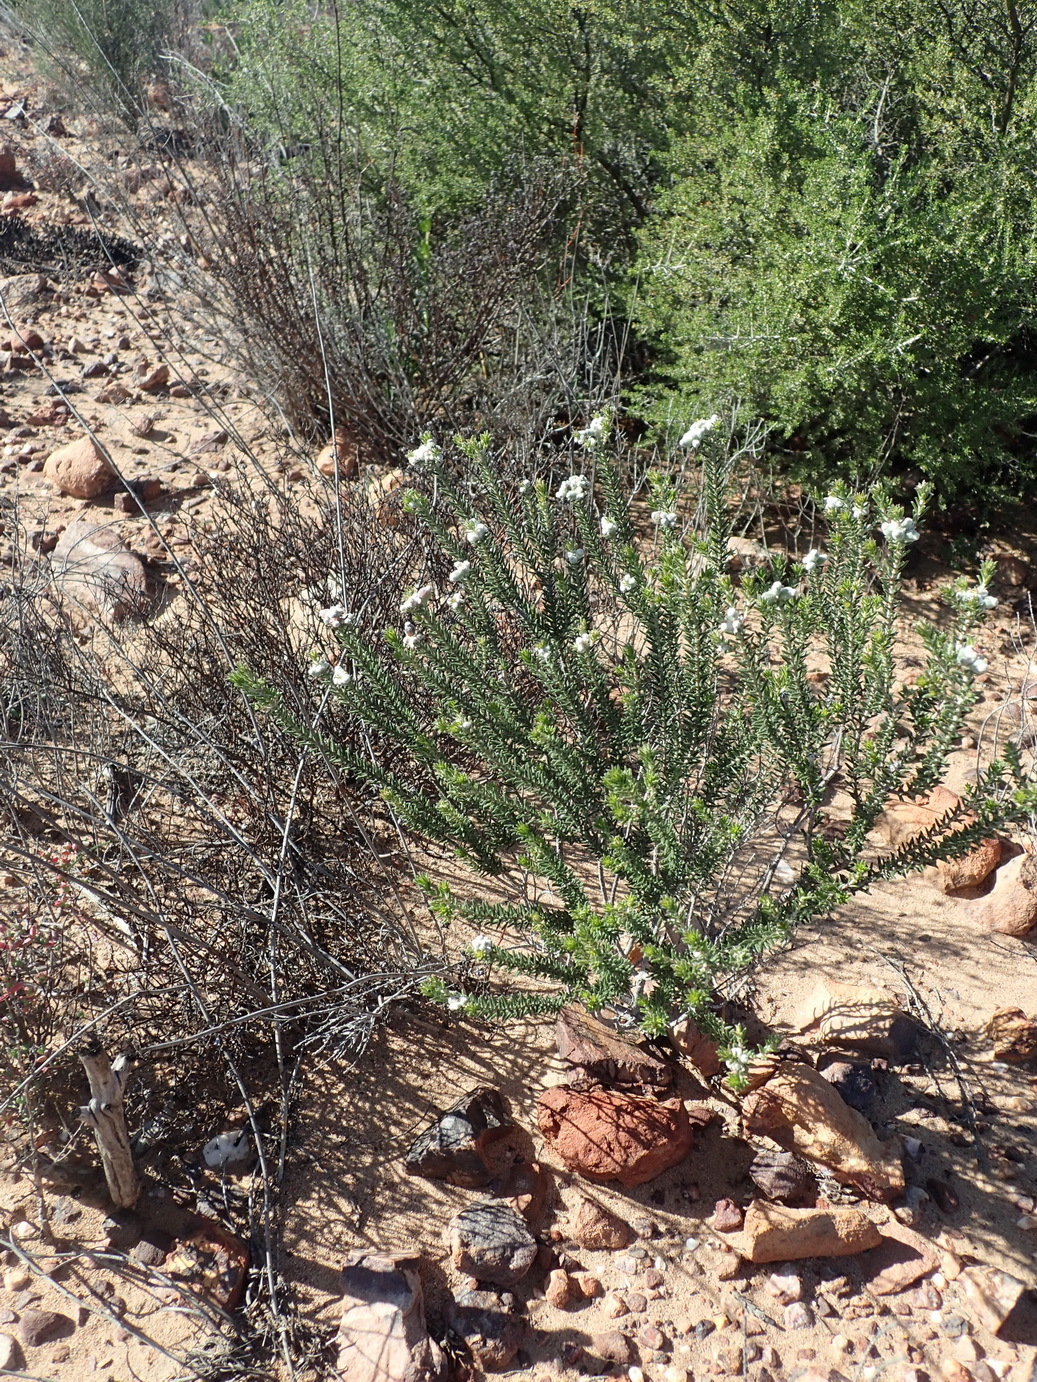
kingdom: Plantae
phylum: Tracheophyta
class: Magnoliopsida
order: Rosales
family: Rhamnaceae
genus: Phylica
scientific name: Phylica lanata
